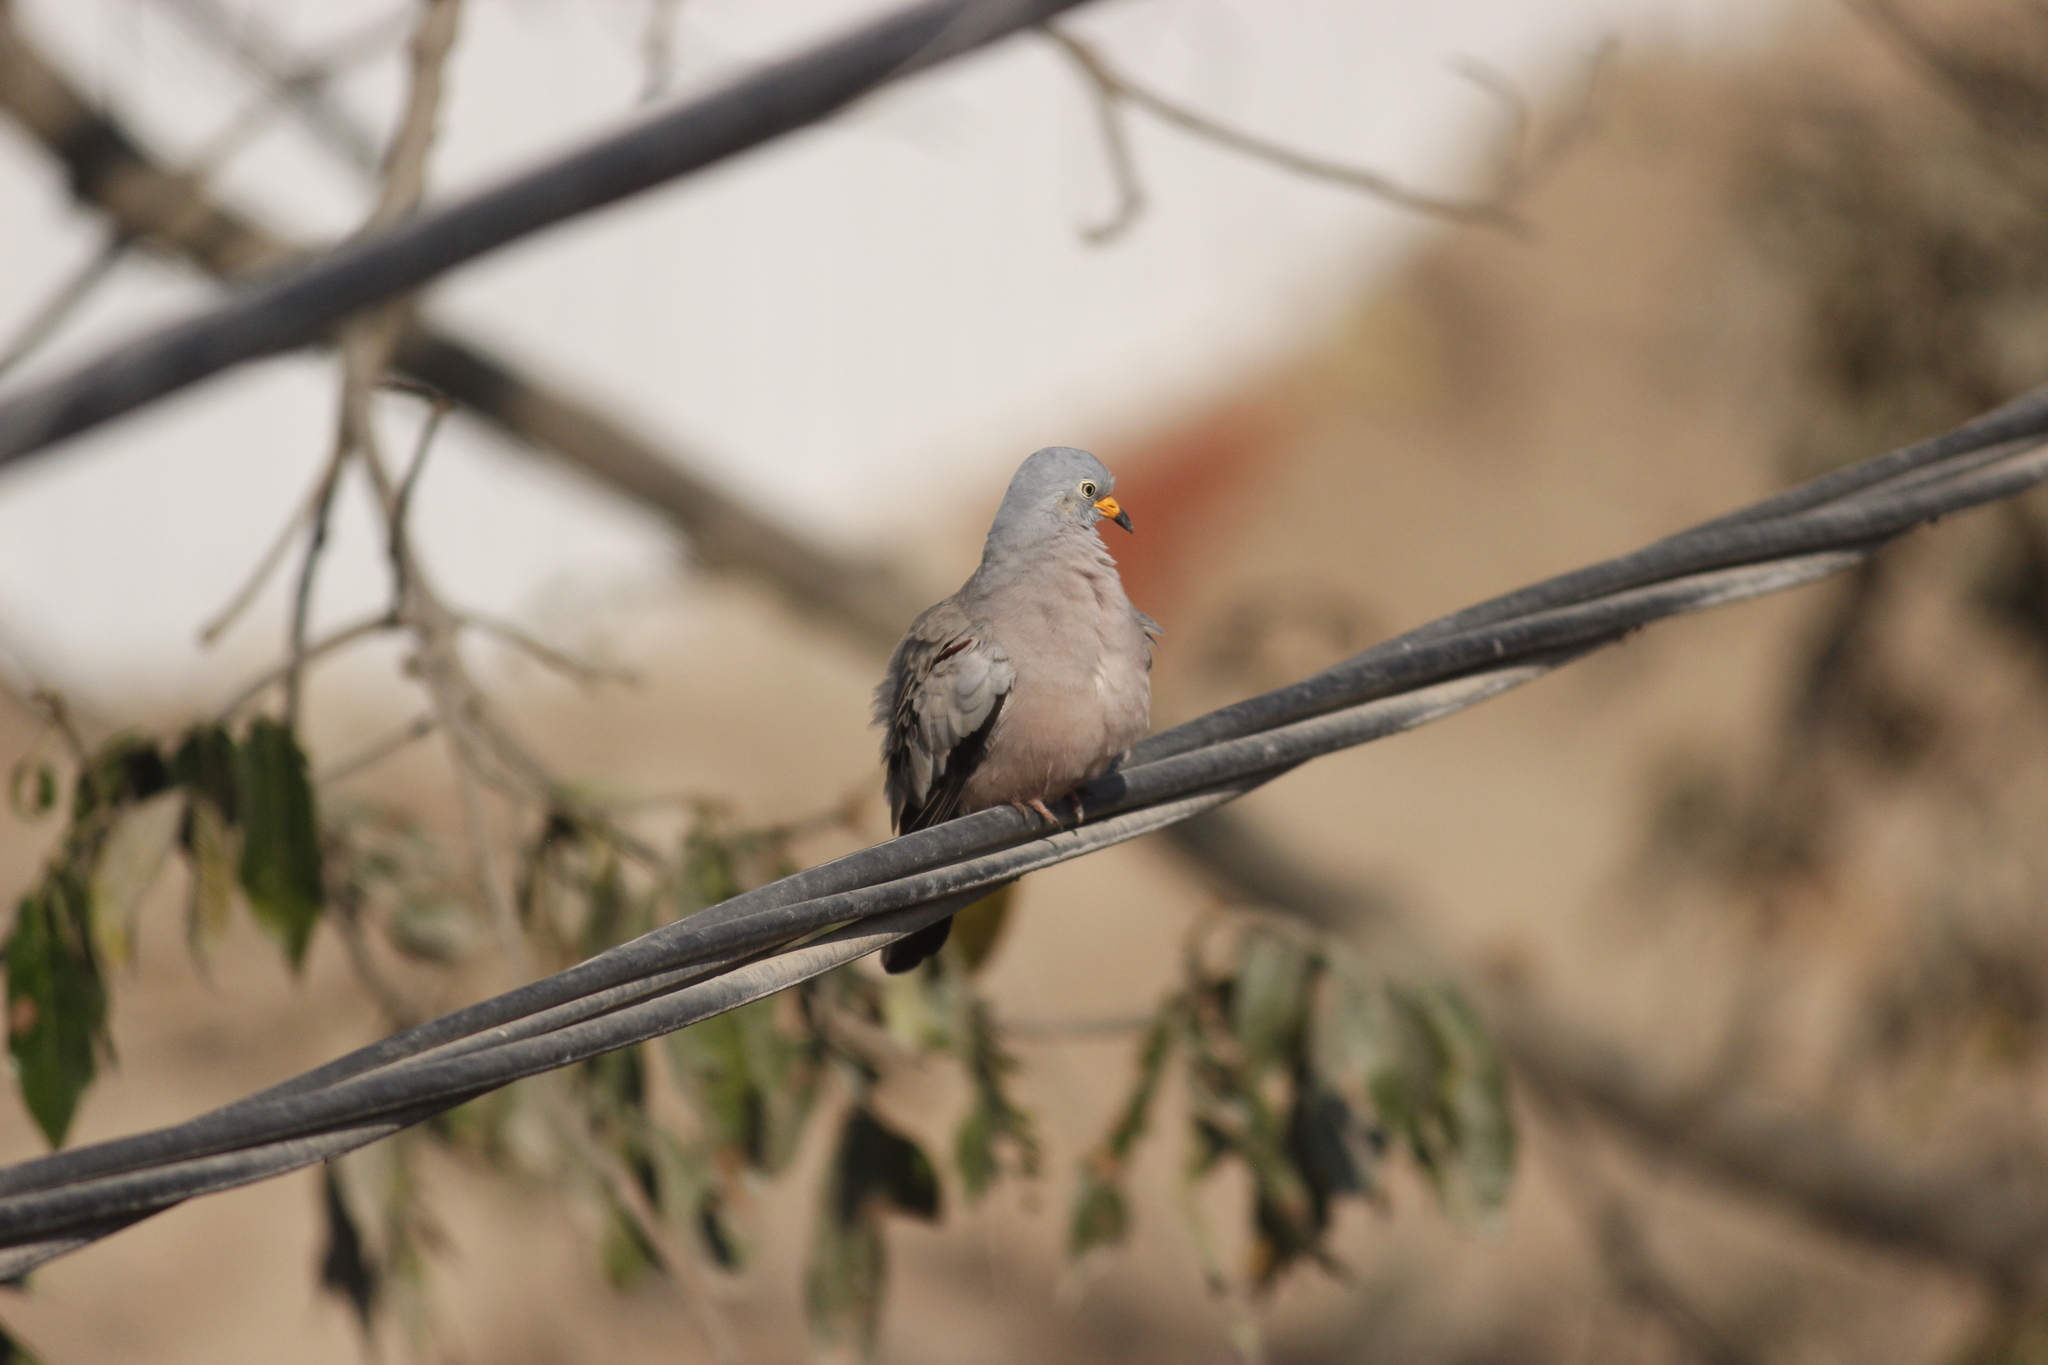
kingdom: Animalia
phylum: Chordata
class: Aves
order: Columbiformes
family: Columbidae
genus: Columbina
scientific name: Columbina cruziana
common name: Croaking ground dove
